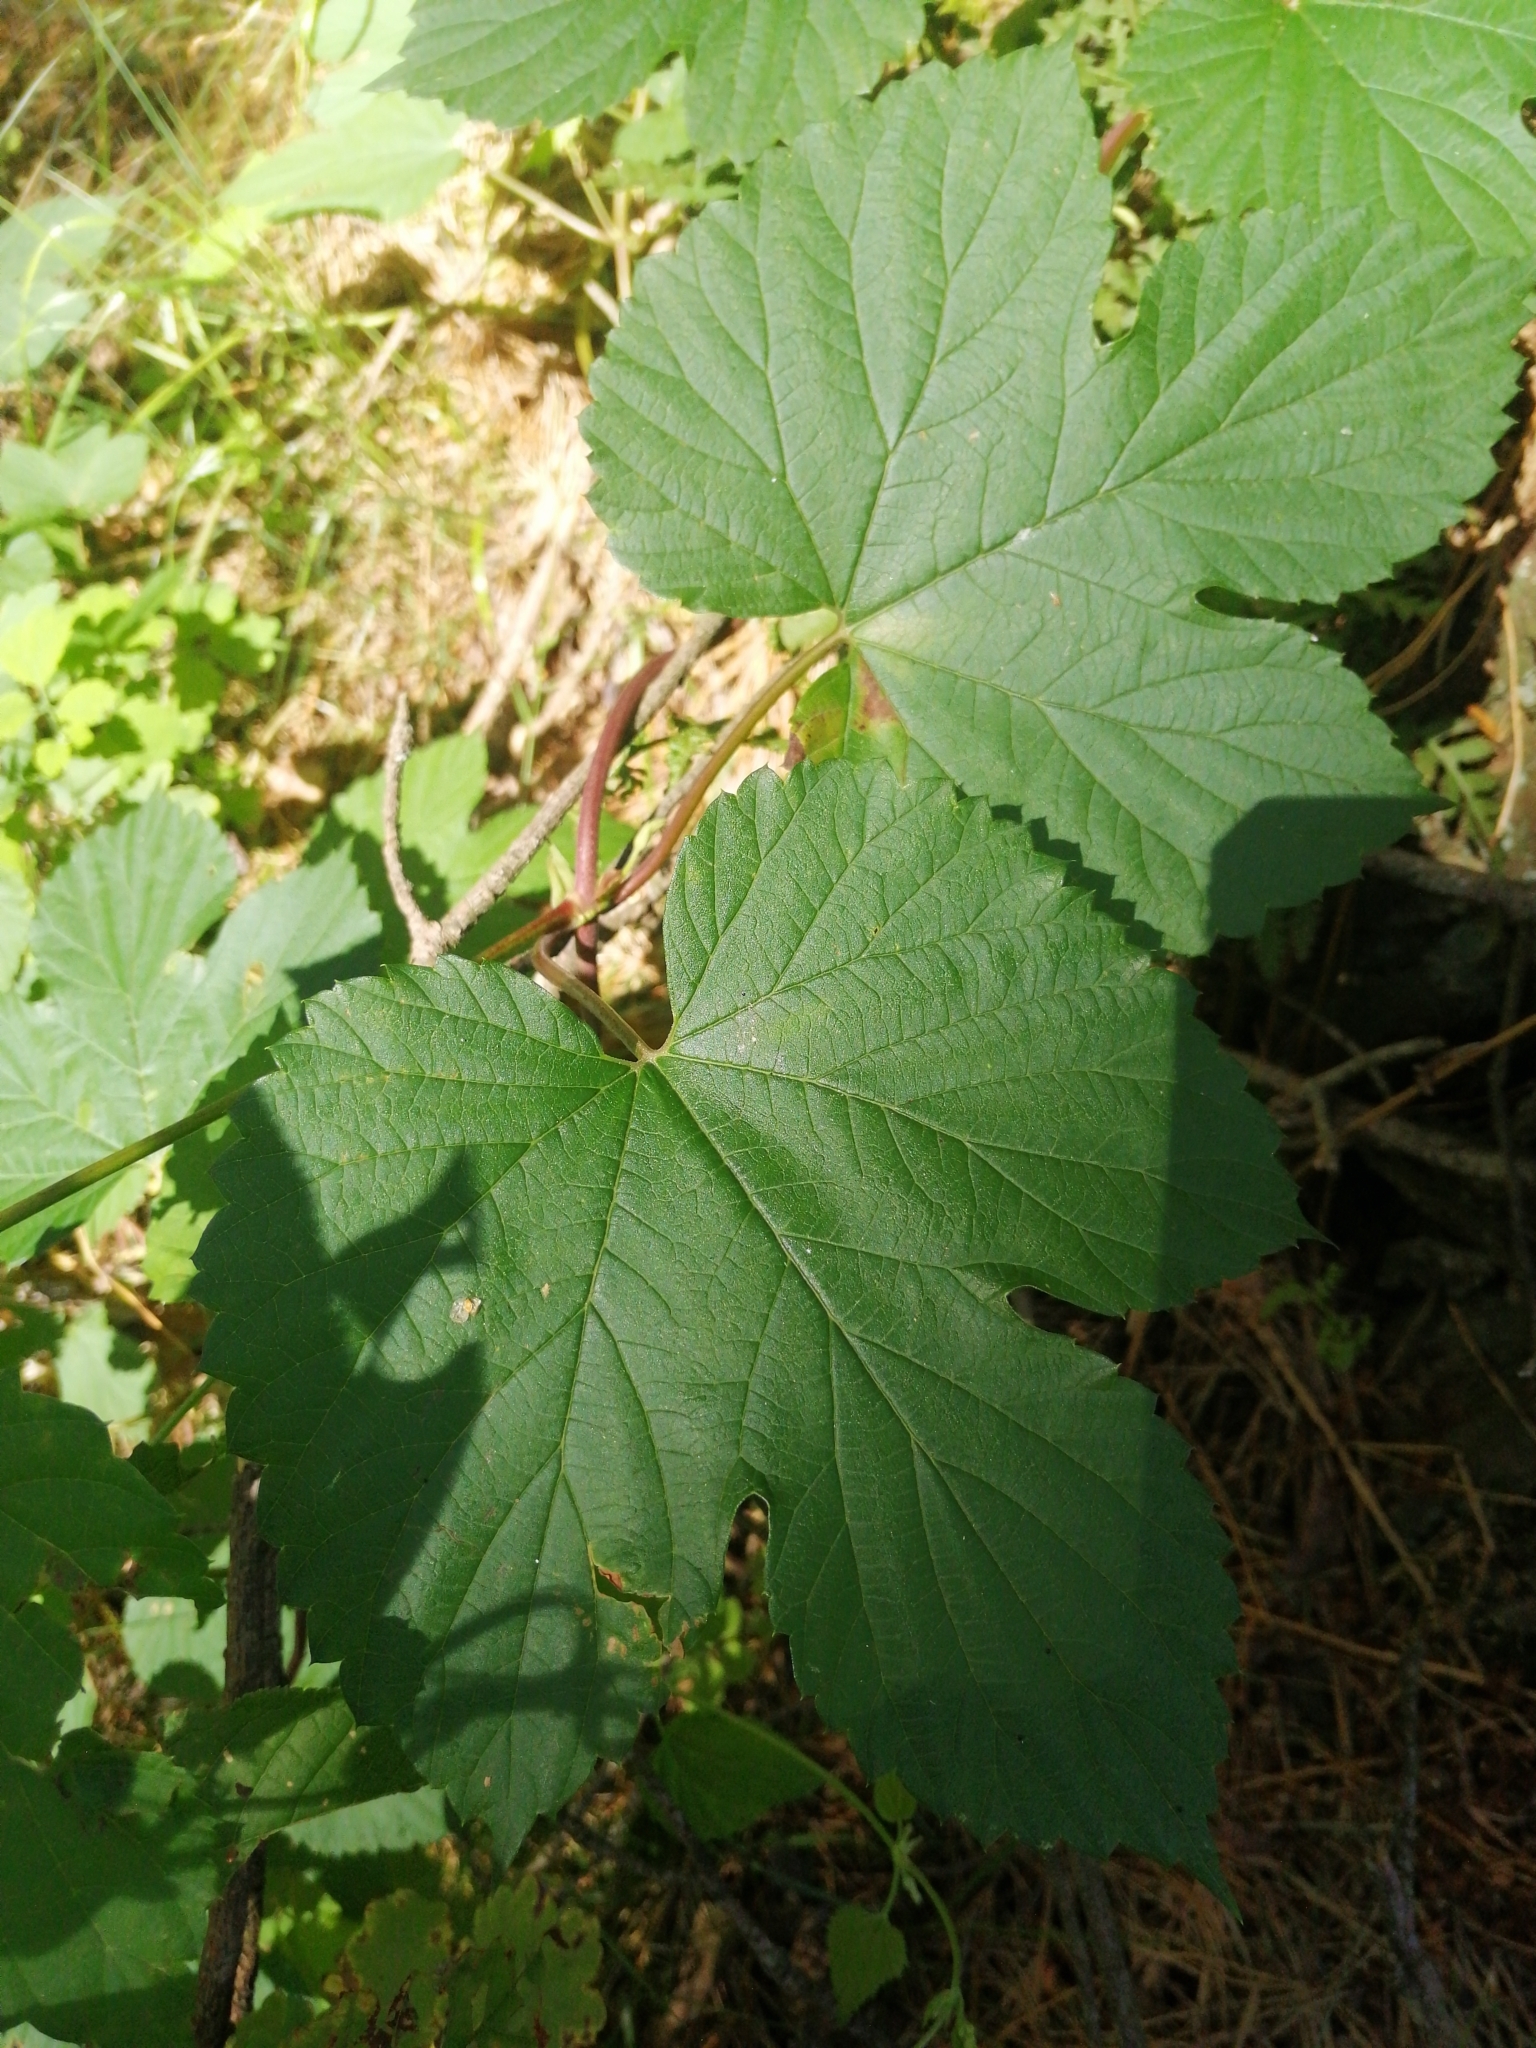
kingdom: Plantae
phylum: Tracheophyta
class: Magnoliopsida
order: Rosales
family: Cannabaceae
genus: Humulus
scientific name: Humulus lupulus
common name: Hop
